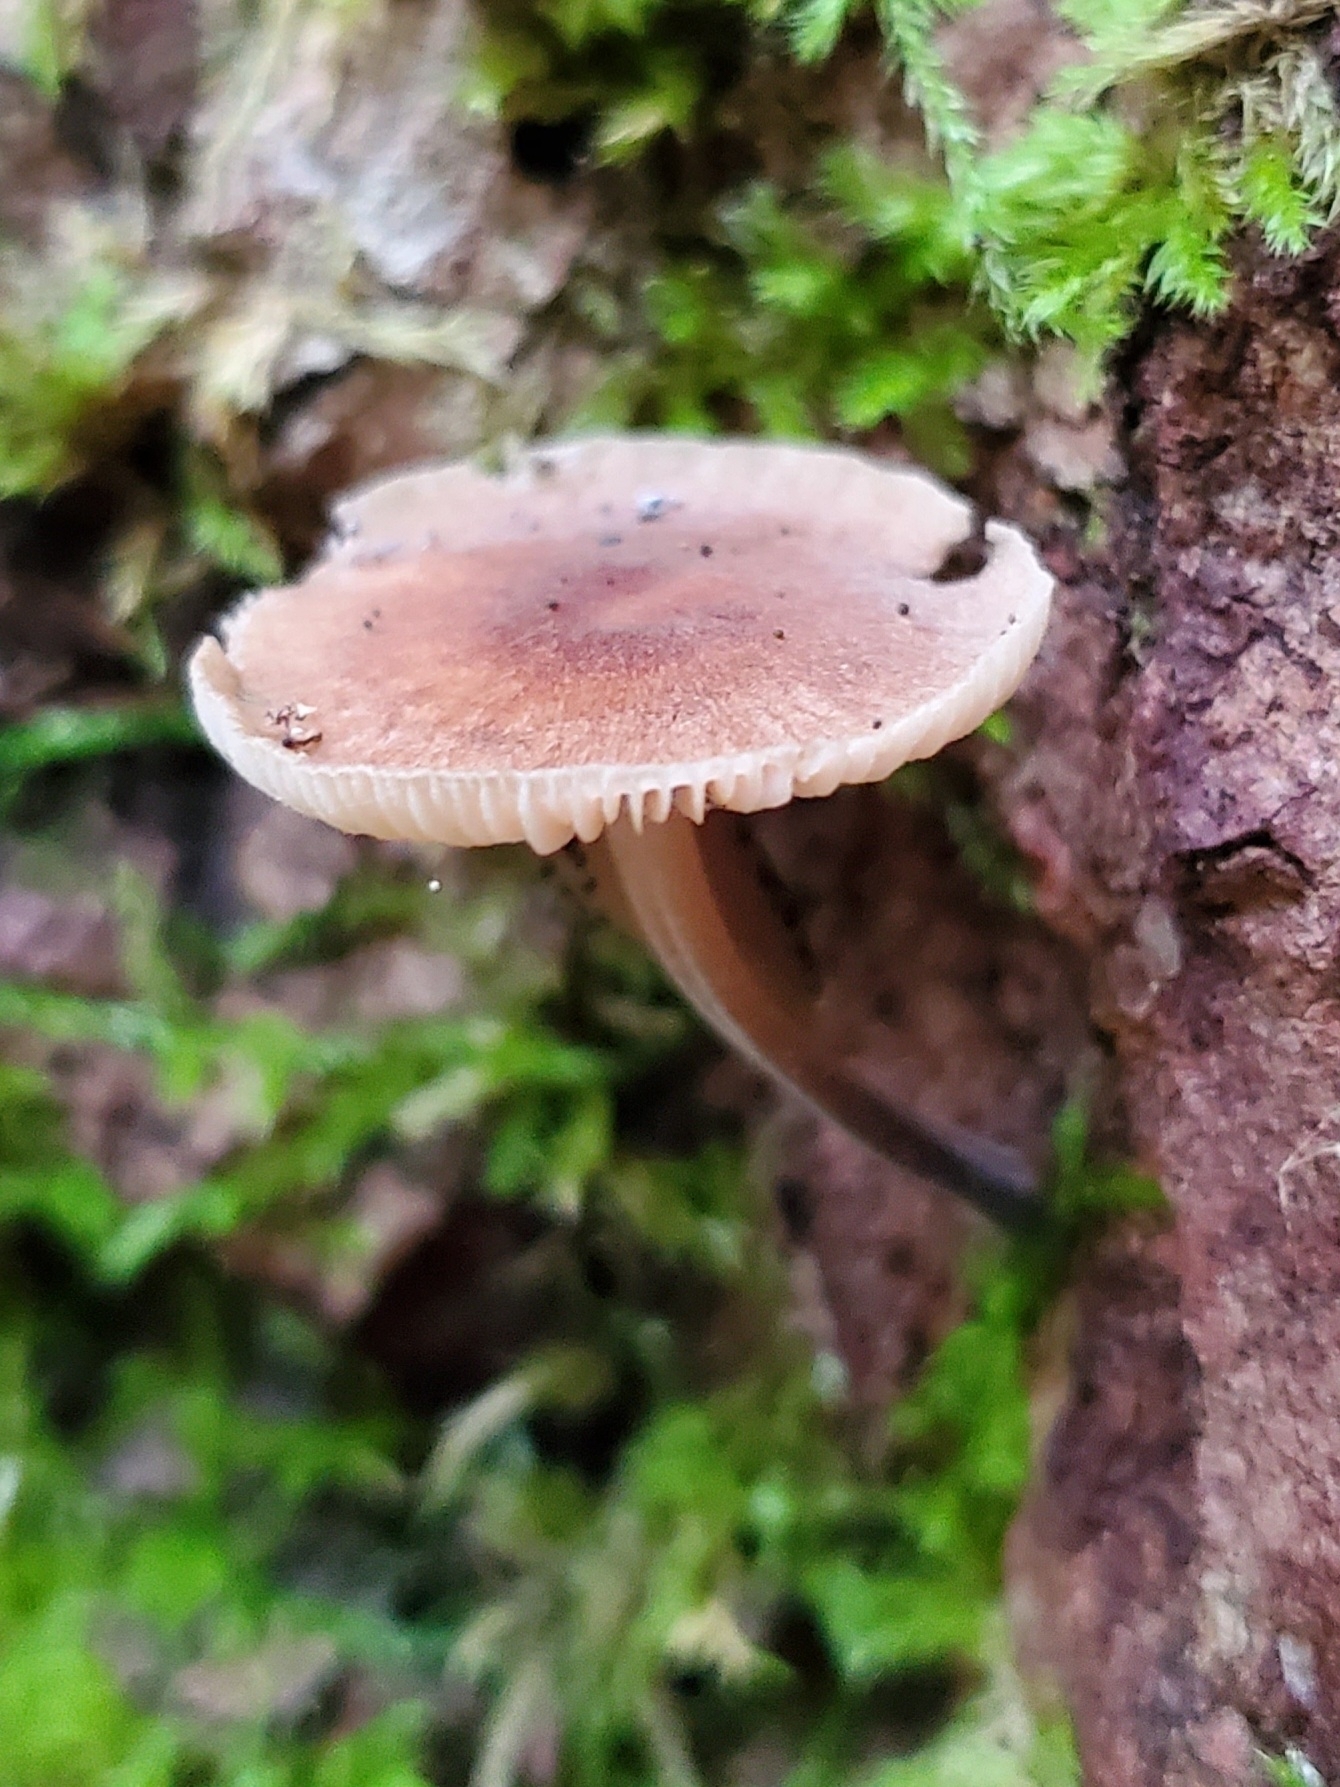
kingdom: Fungi
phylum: Basidiomycota
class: Agaricomycetes
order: Agaricales
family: Omphalotaceae
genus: Collybiopsis
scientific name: Collybiopsis dichroa
